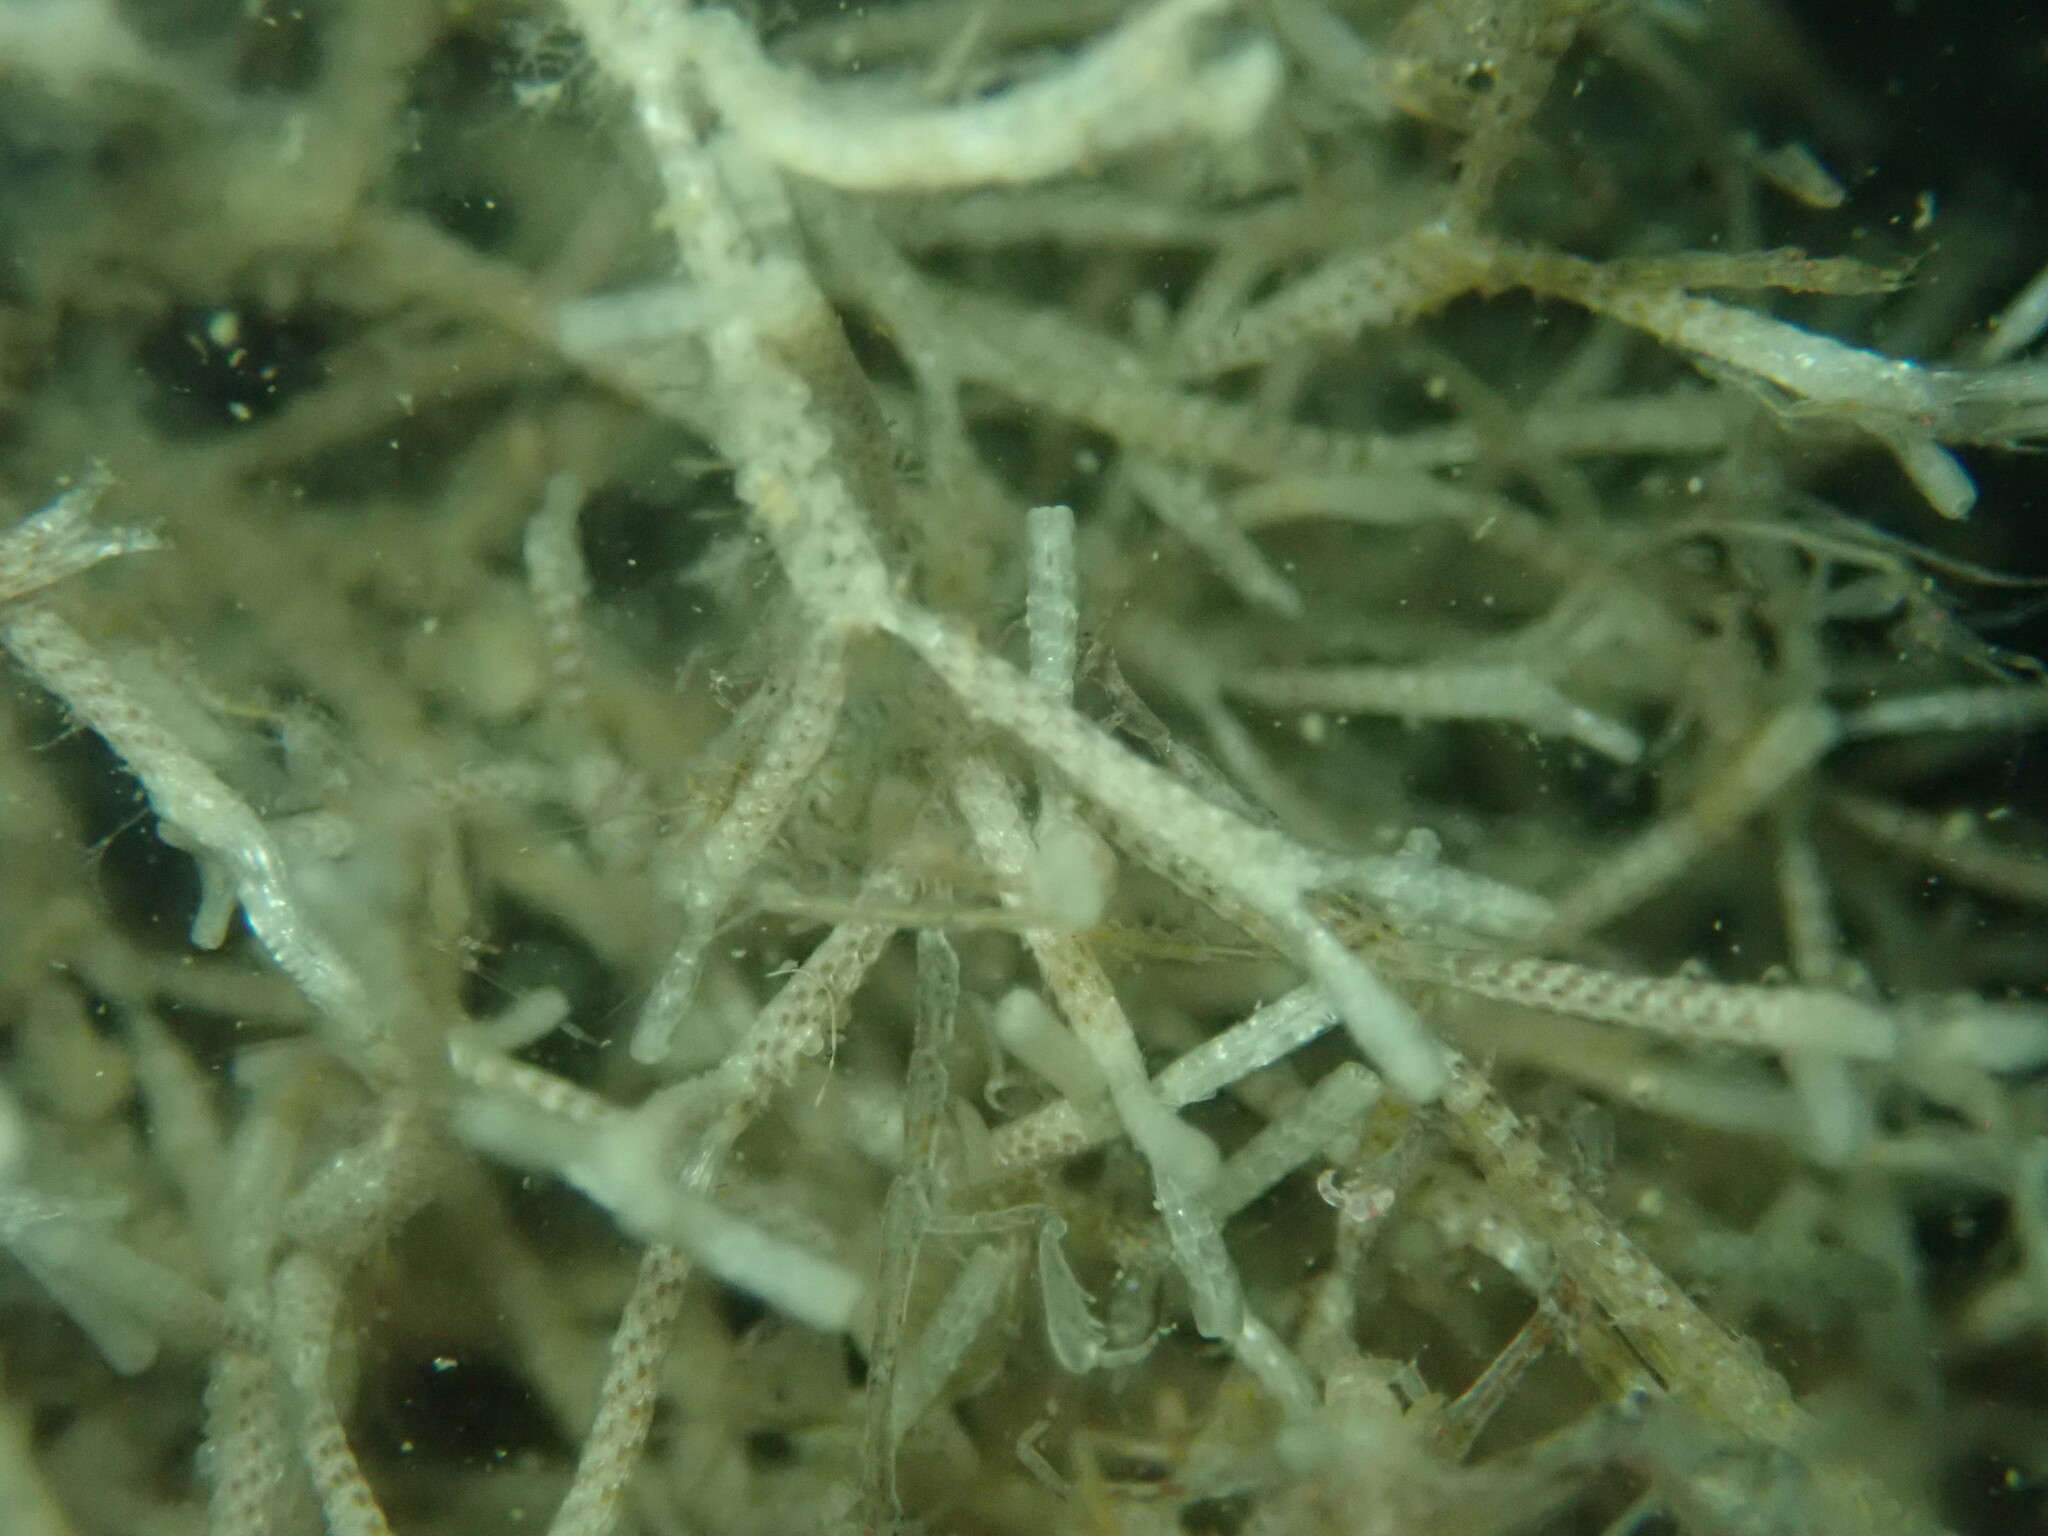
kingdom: Animalia
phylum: Bryozoa
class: Gymnolaemata
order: Cheilostomatida
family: Thalamoporellidae
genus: Thalamoporella
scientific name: Thalamoporella californica
